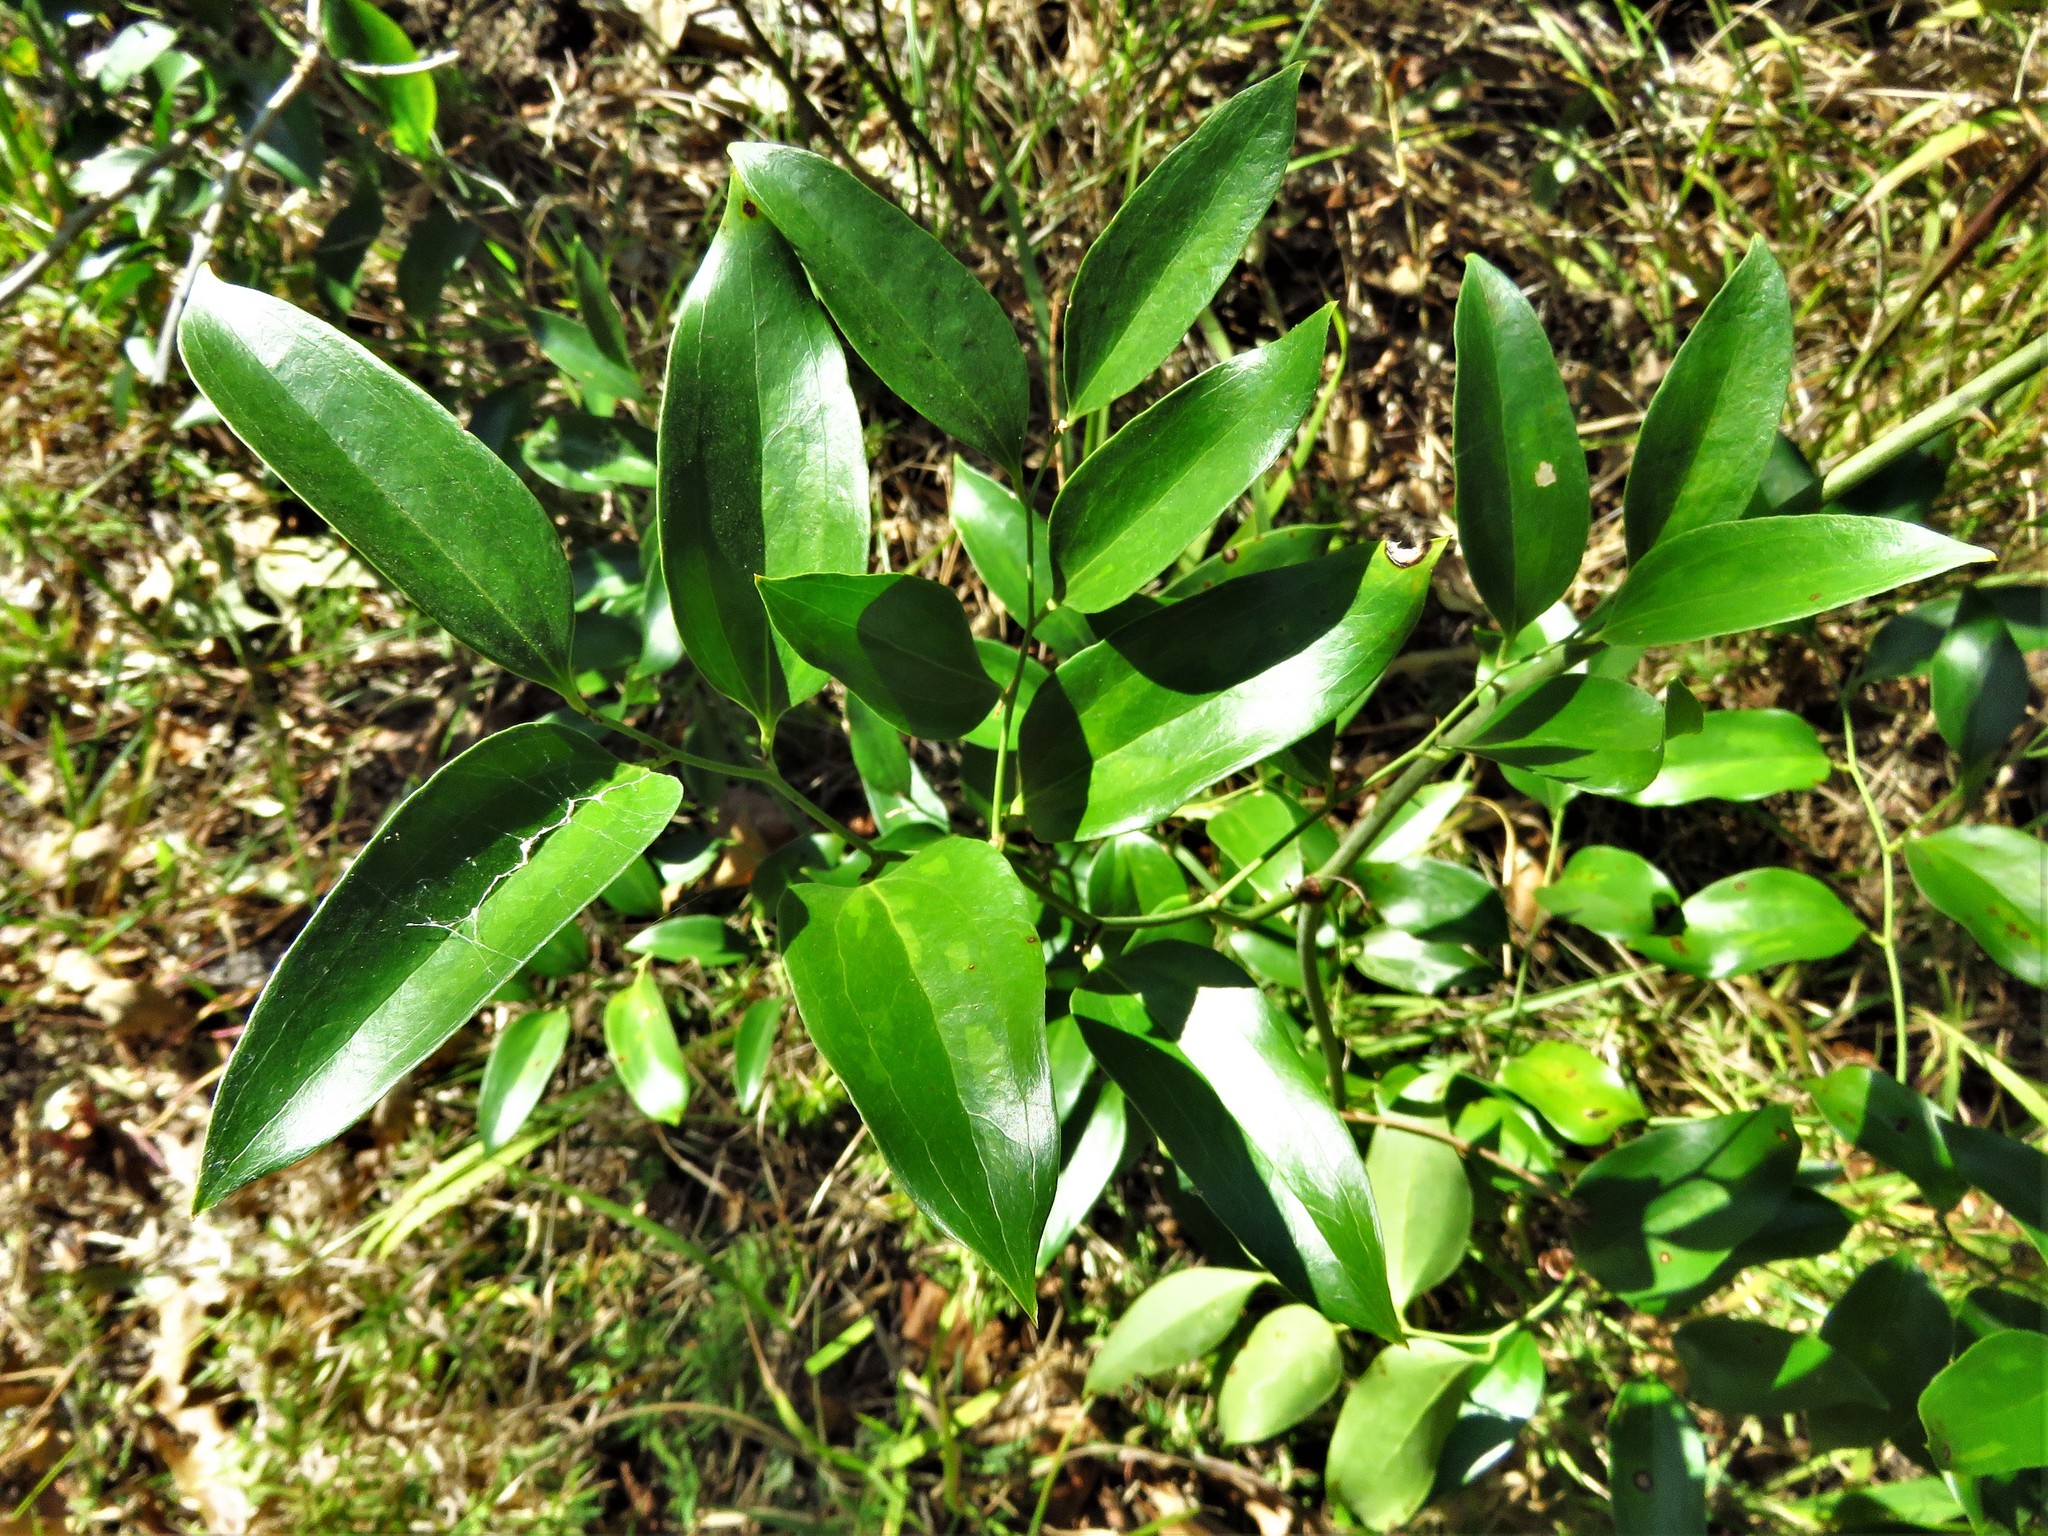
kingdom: Plantae
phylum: Tracheophyta
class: Liliopsida
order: Liliales
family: Smilacaceae
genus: Smilax
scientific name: Smilax maritima
